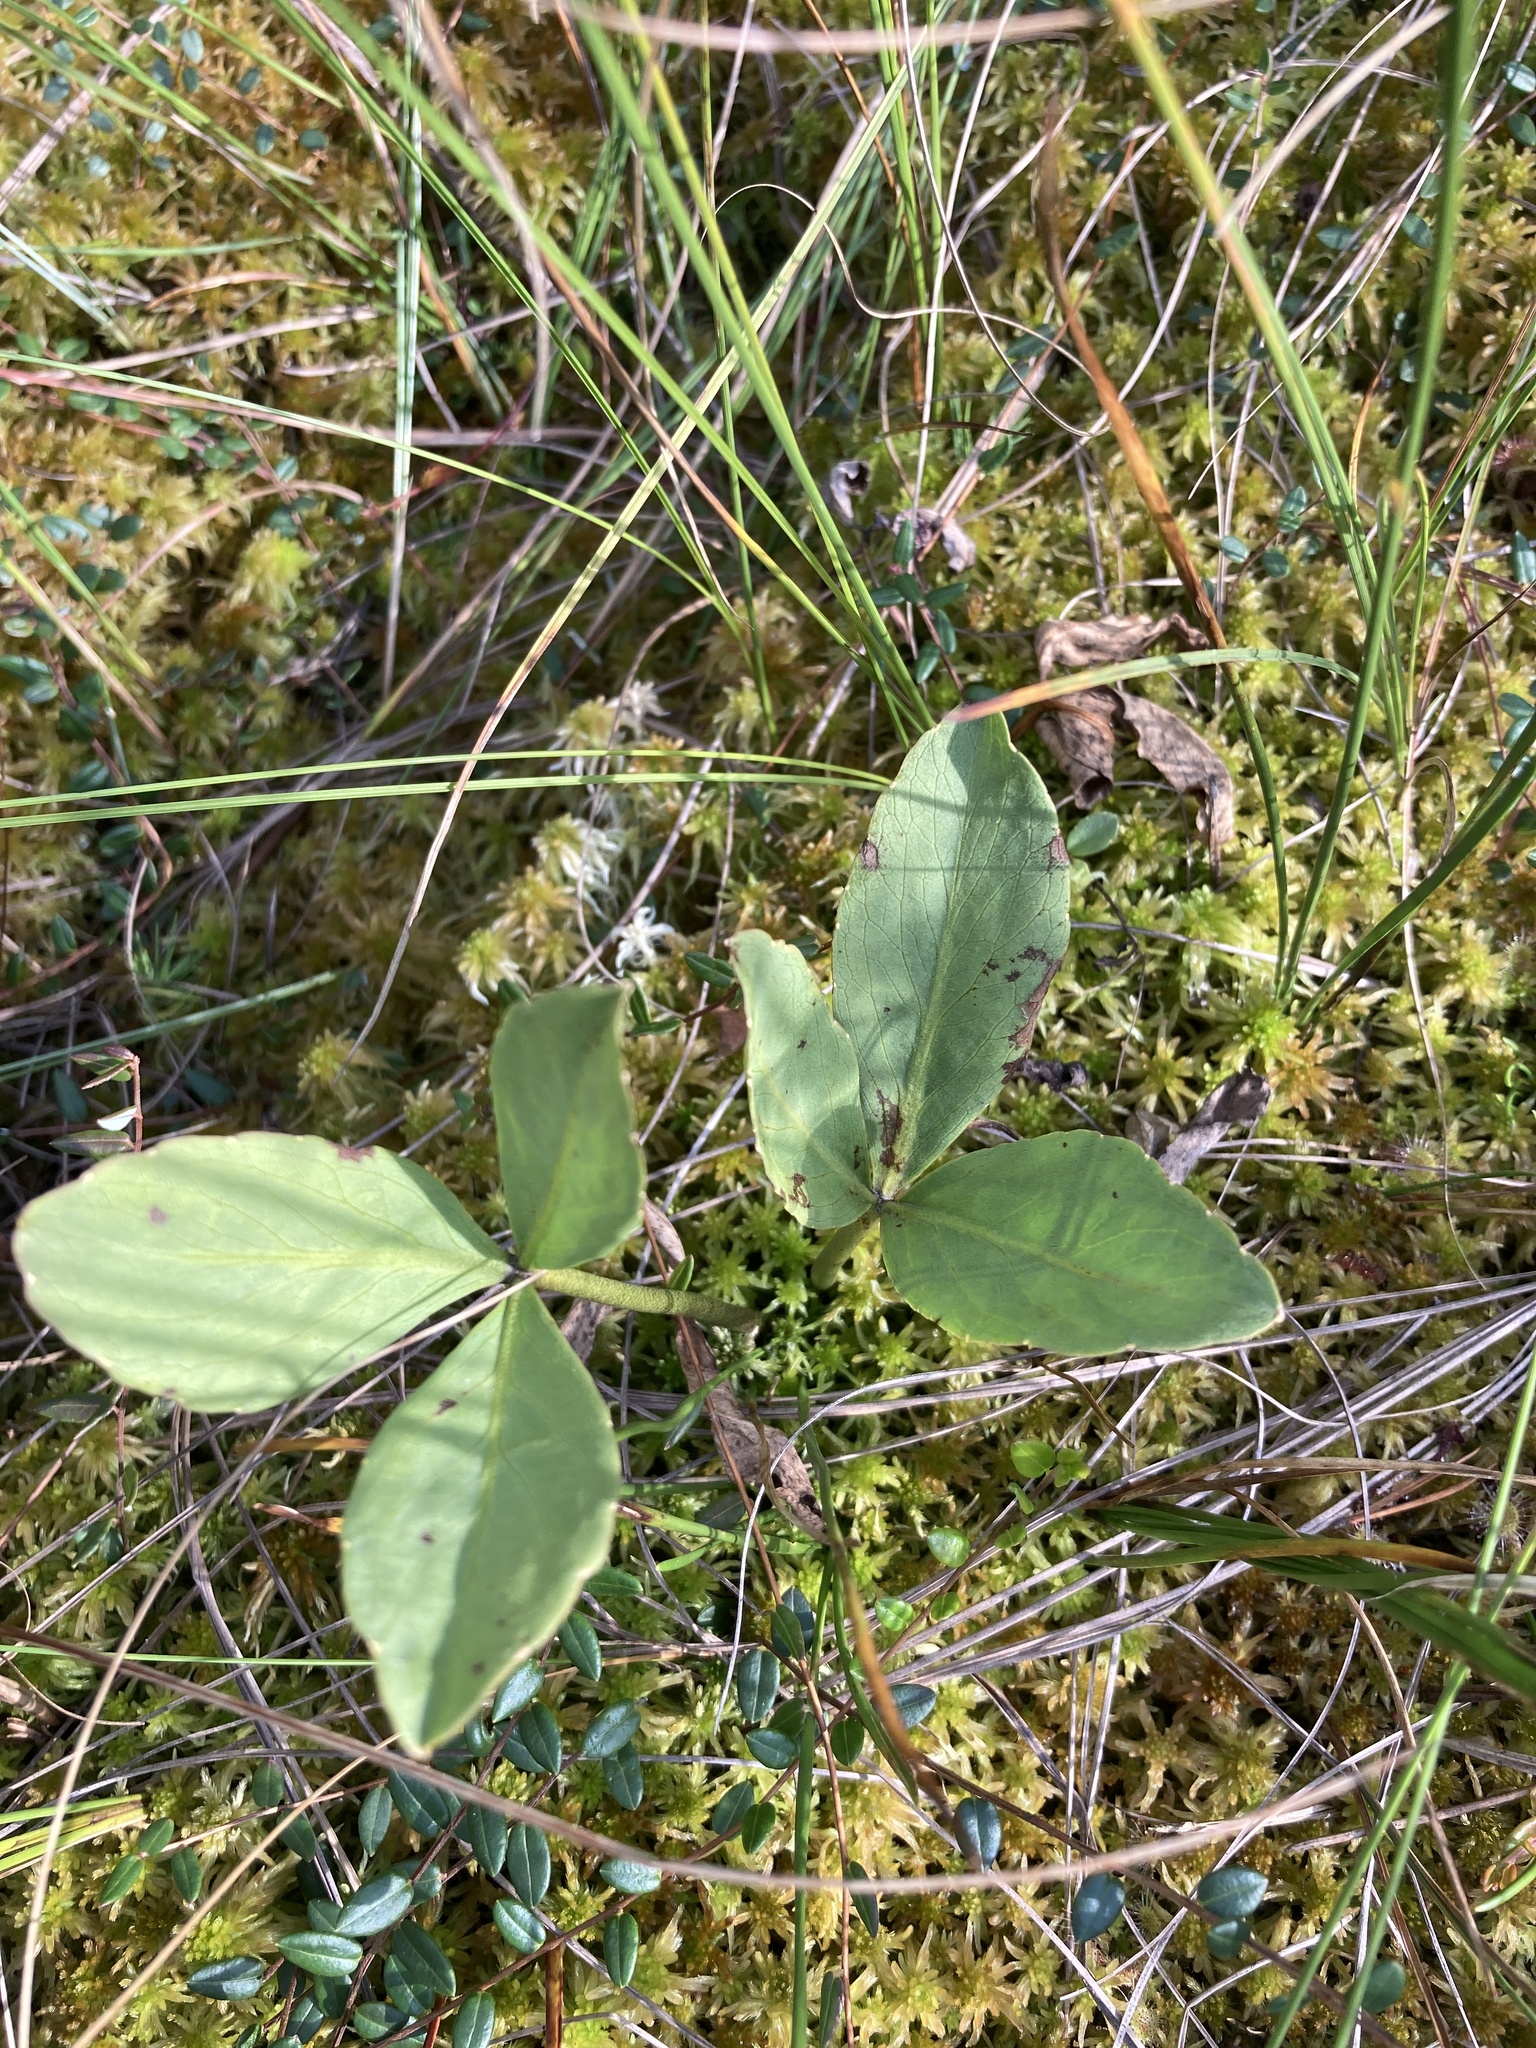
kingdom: Plantae
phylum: Tracheophyta
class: Magnoliopsida
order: Asterales
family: Menyanthaceae
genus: Menyanthes
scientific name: Menyanthes trifoliata
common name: Bogbean
